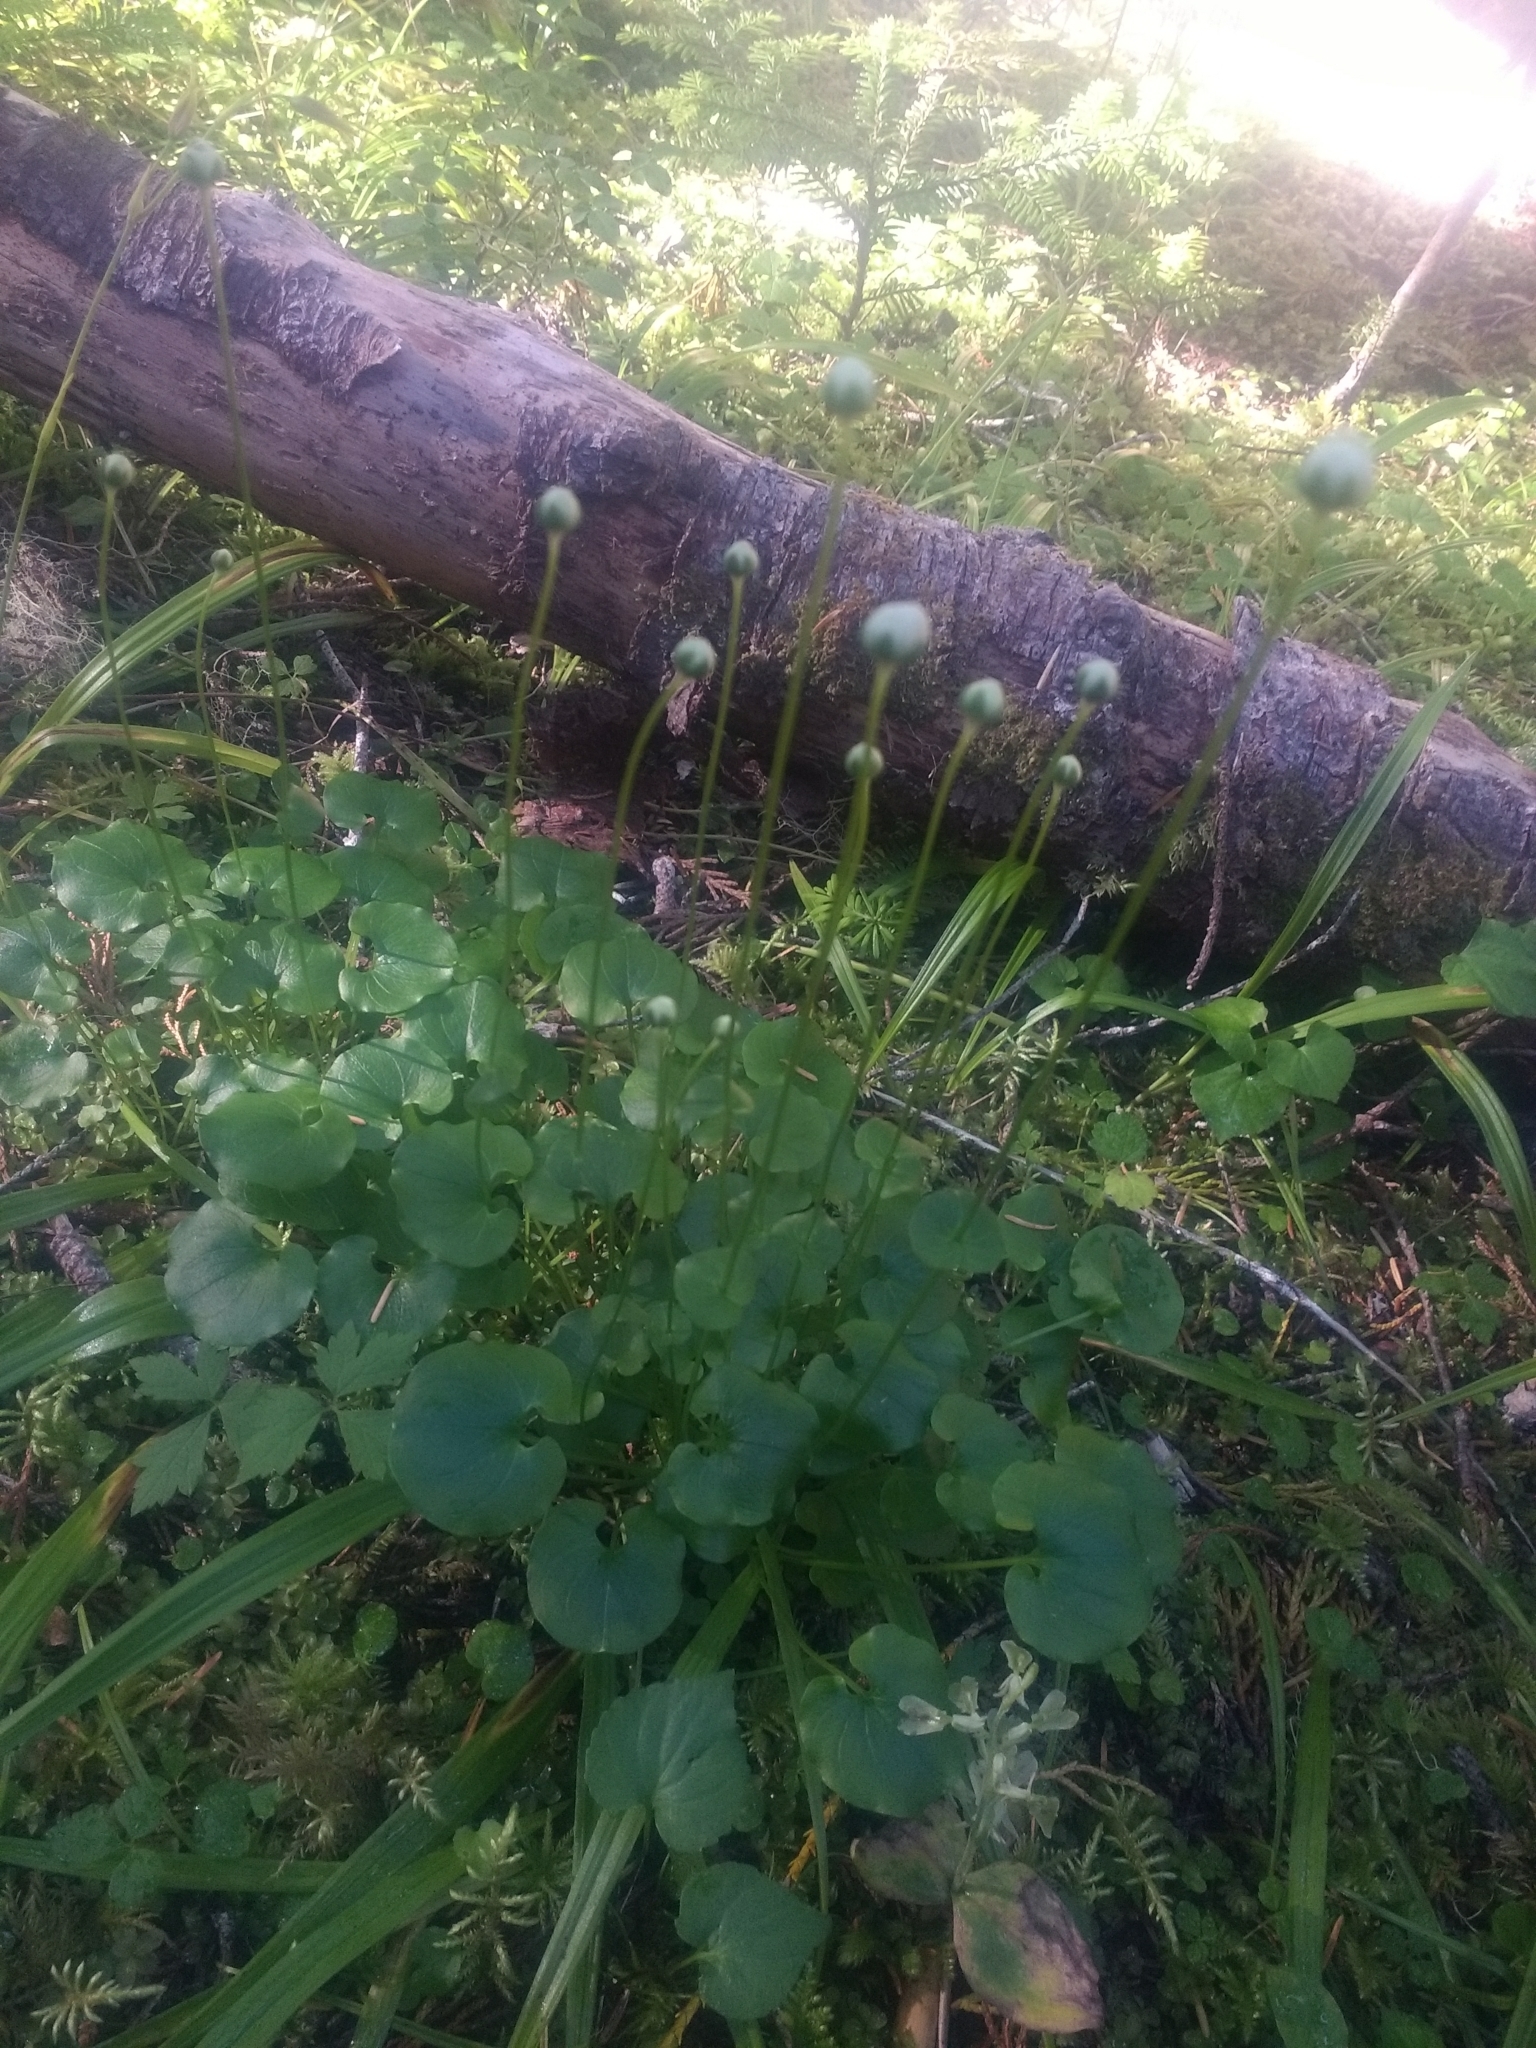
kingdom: Plantae
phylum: Tracheophyta
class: Magnoliopsida
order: Celastrales
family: Parnassiaceae
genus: Parnassia
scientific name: Parnassia fimbriata
